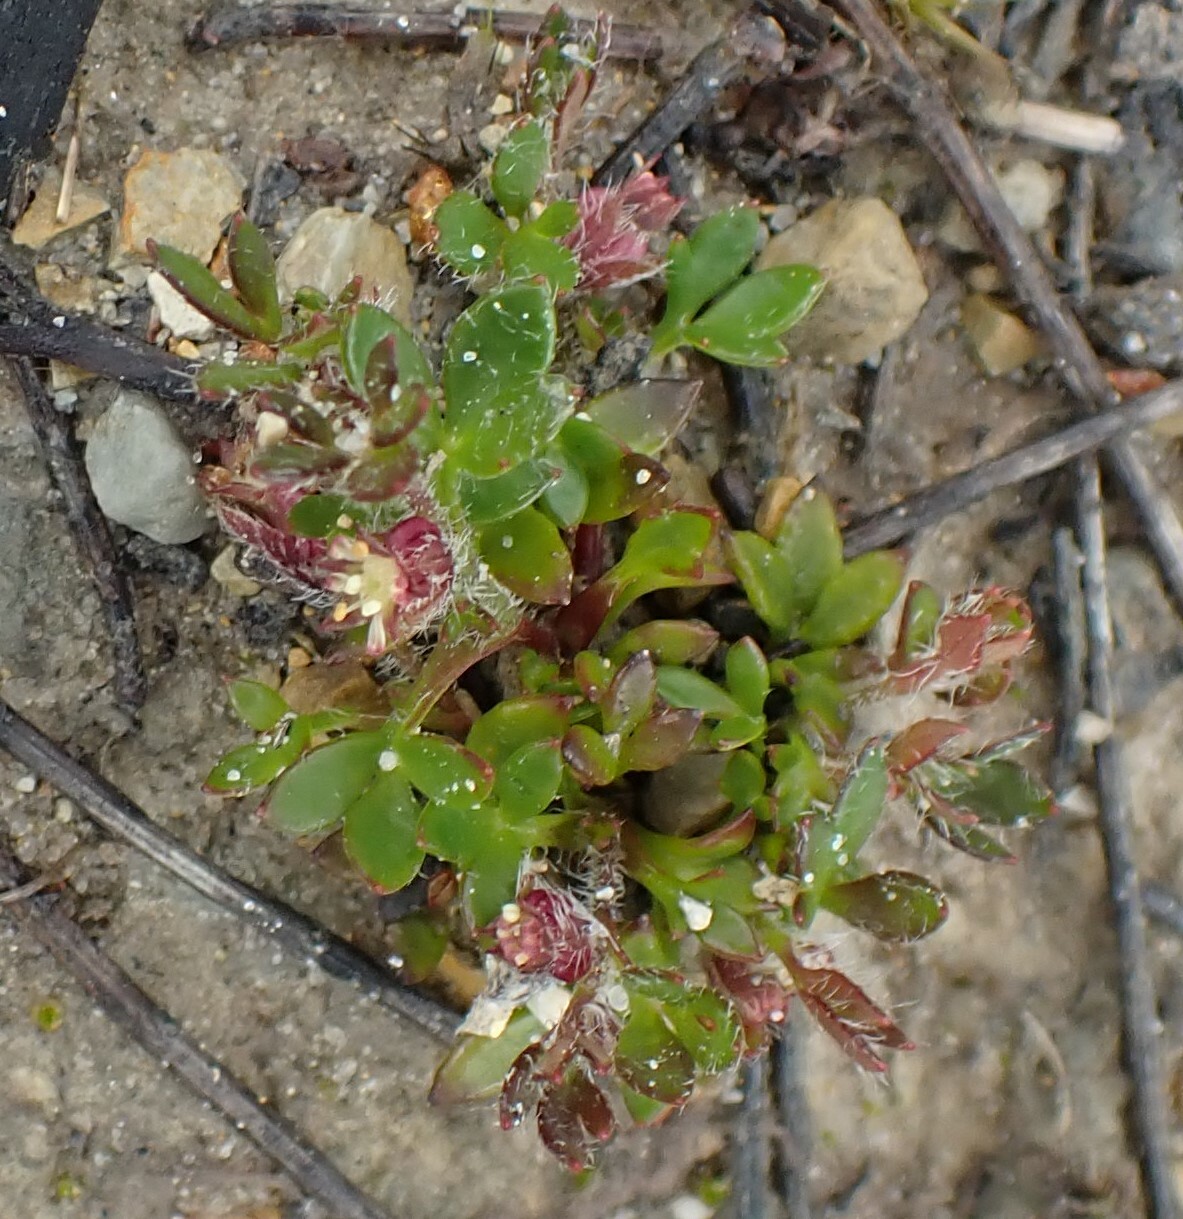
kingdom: Plantae
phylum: Tracheophyta
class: Magnoliopsida
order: Apiales
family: Apiaceae
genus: Xanthosia
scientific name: Xanthosia tasmanica
